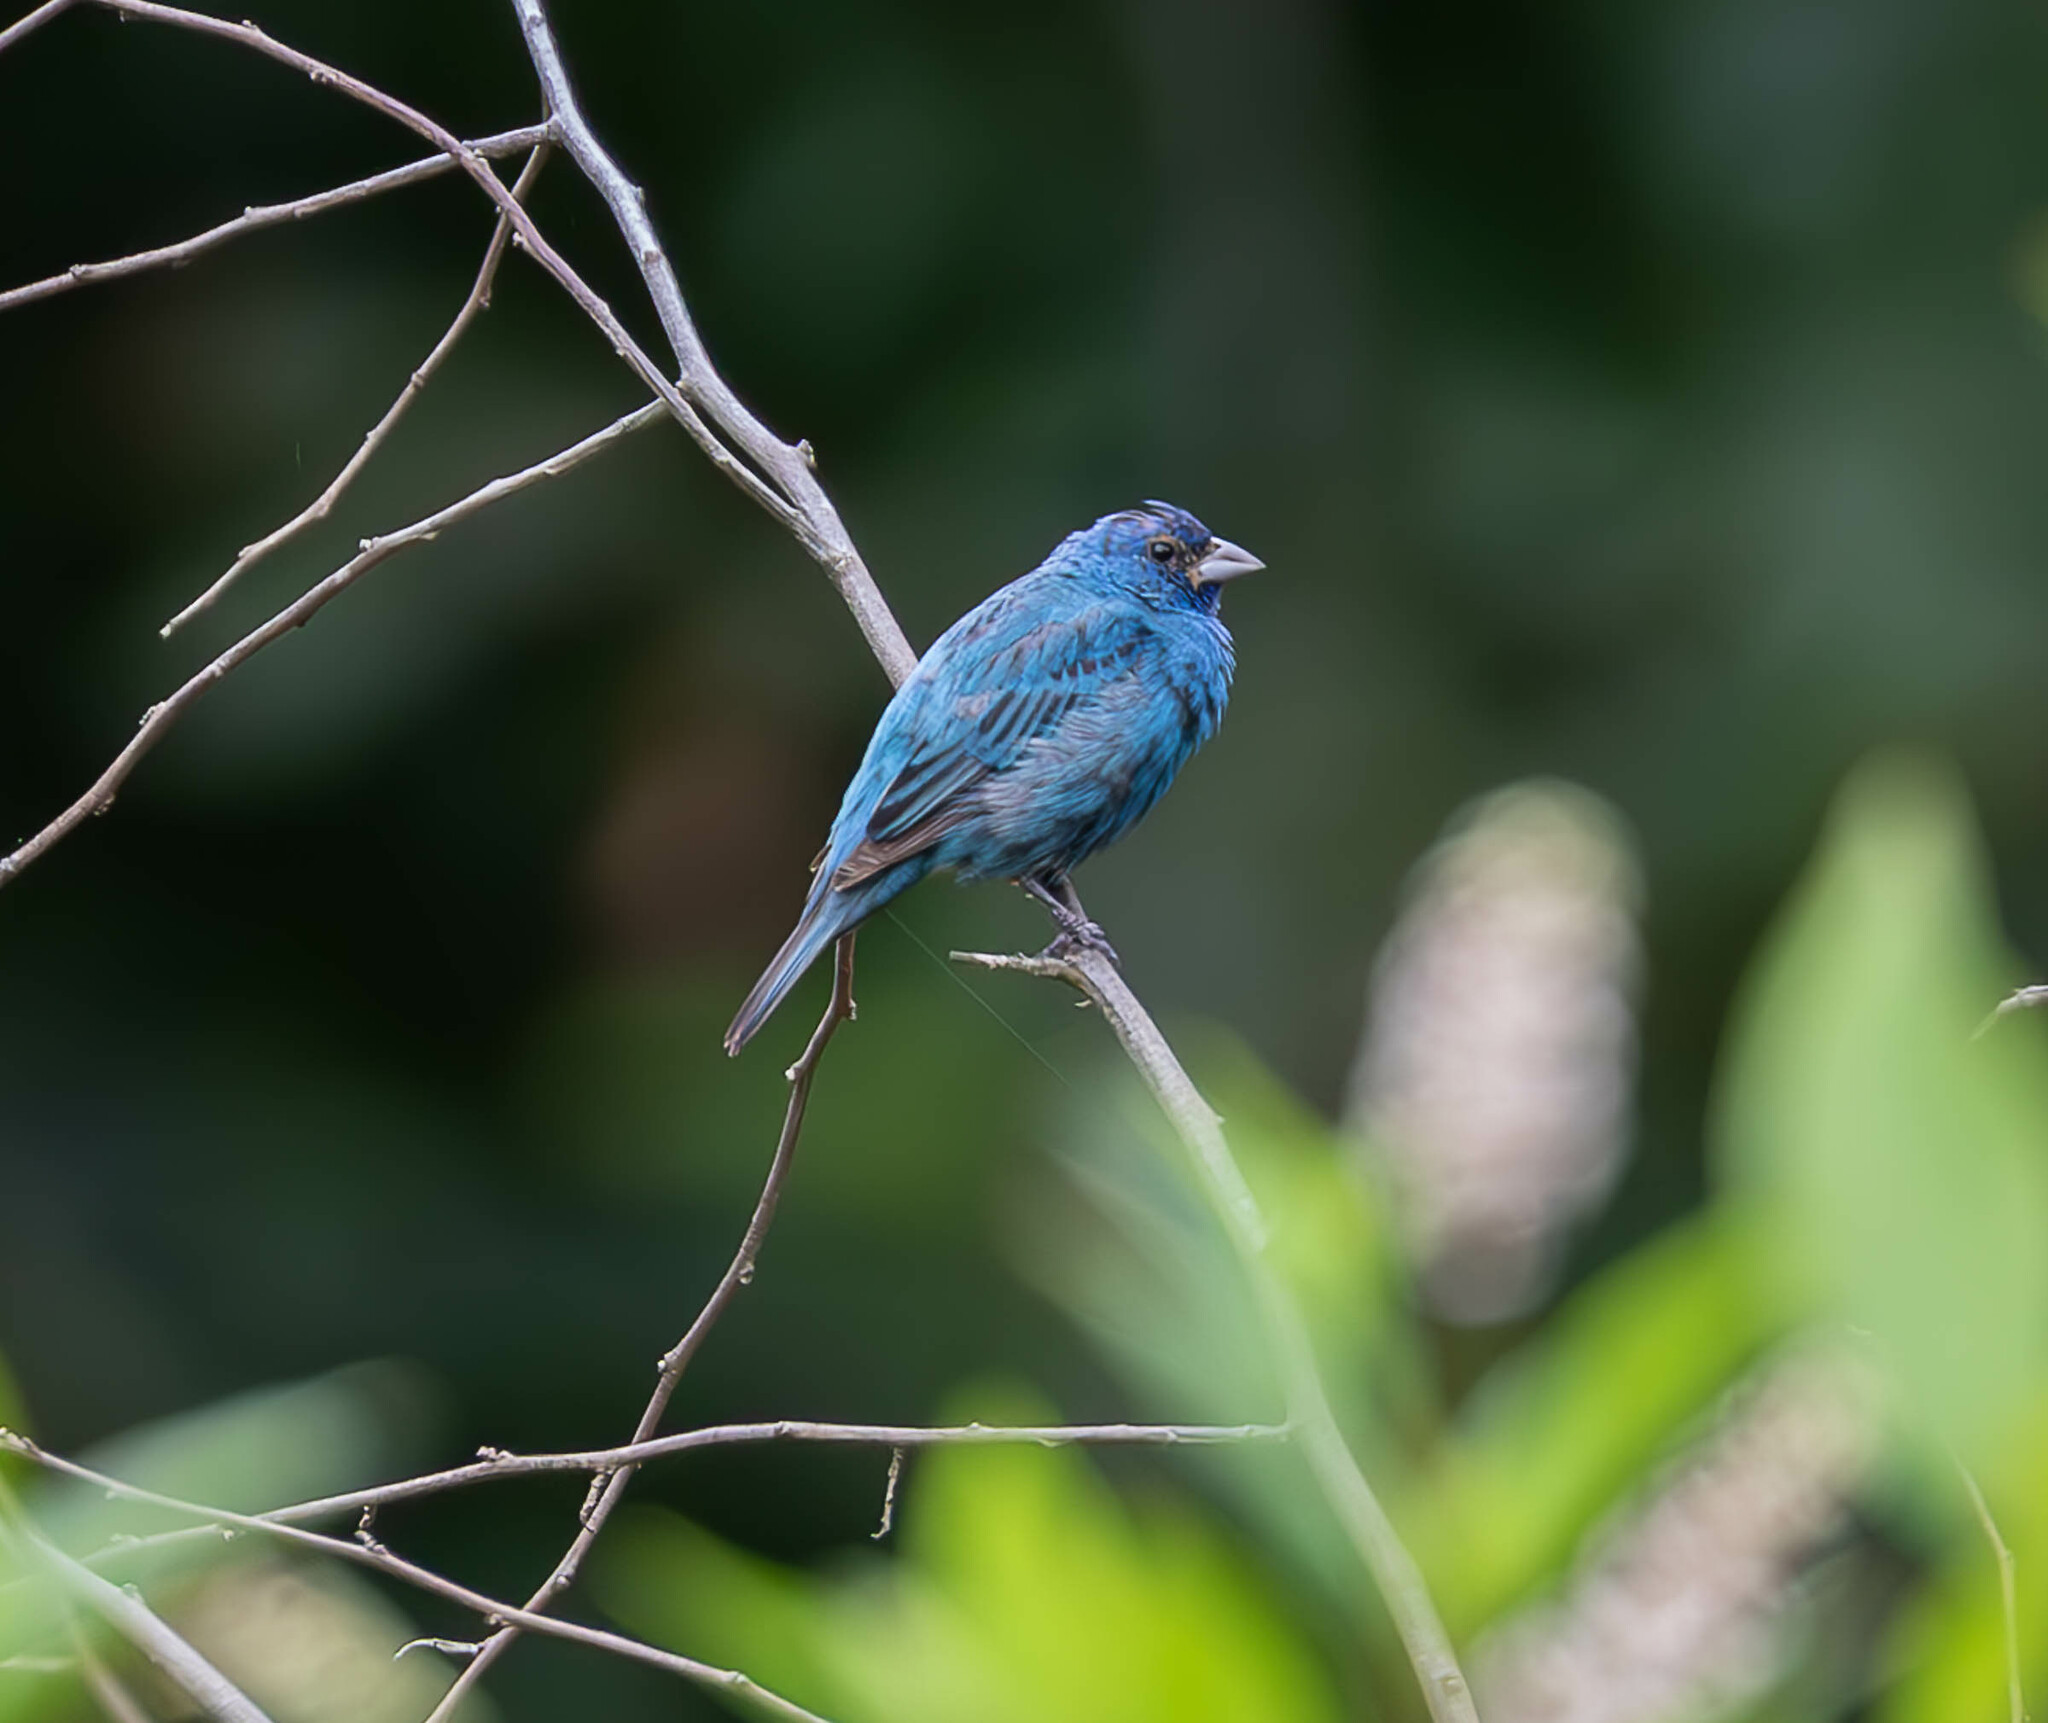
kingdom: Animalia
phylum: Chordata
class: Aves
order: Passeriformes
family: Cardinalidae
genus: Passerina
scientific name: Passerina cyanea
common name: Indigo bunting
